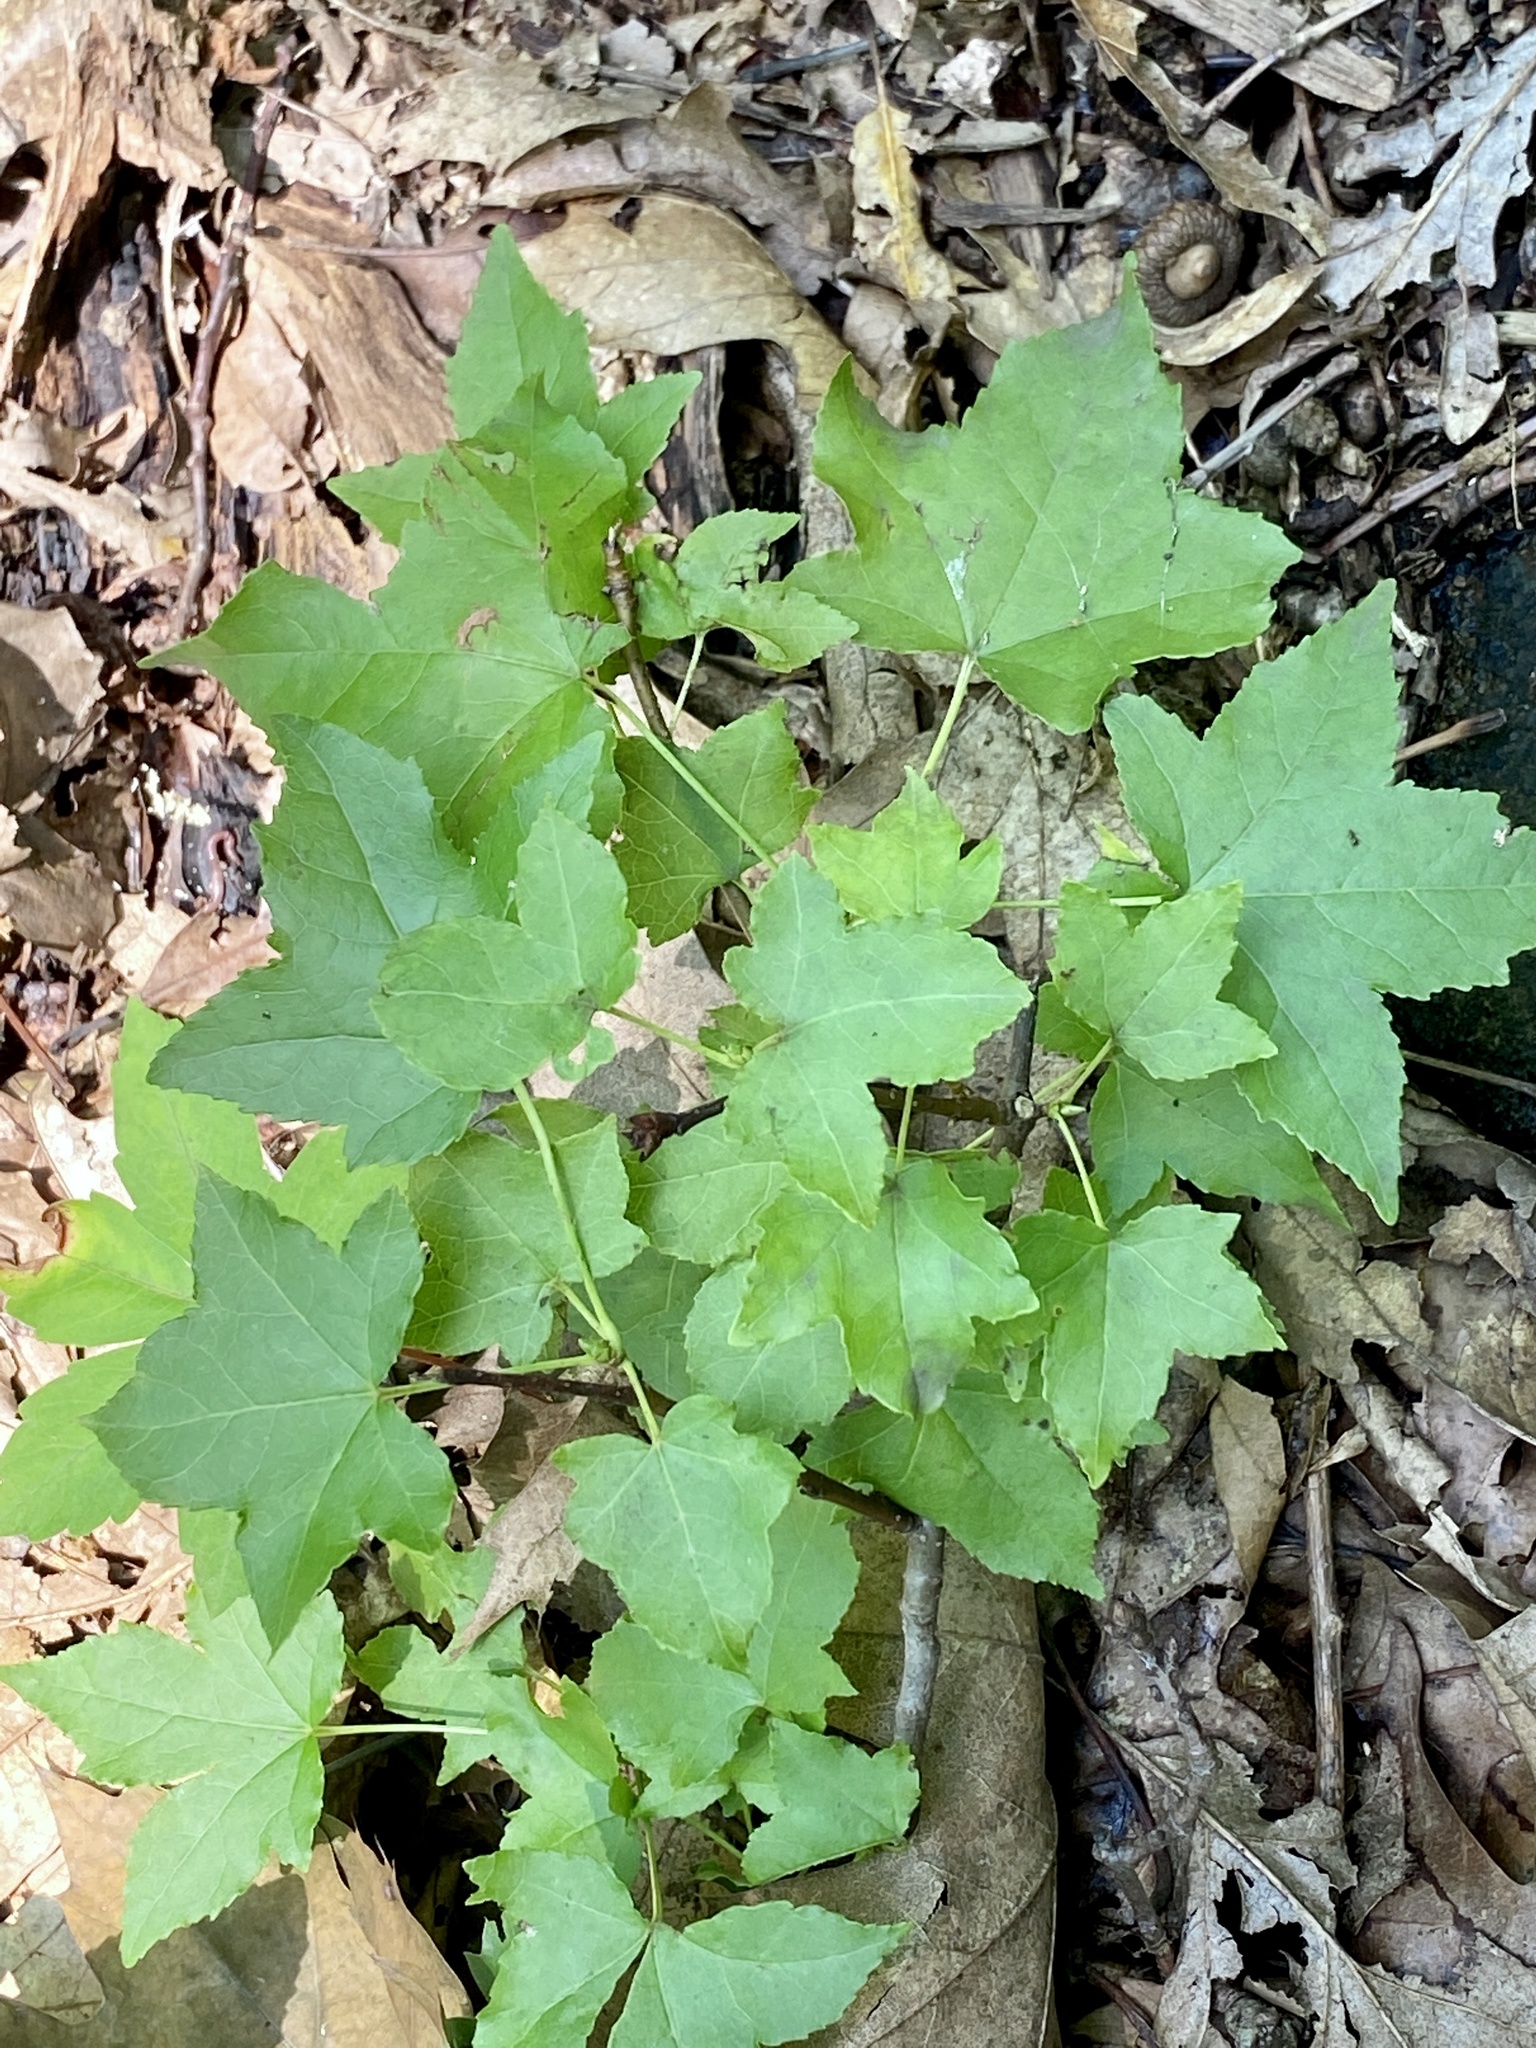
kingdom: Plantae
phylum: Tracheophyta
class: Magnoliopsida
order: Saxifragales
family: Altingiaceae
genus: Liquidambar
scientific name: Liquidambar styraciflua
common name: Sweet gum
